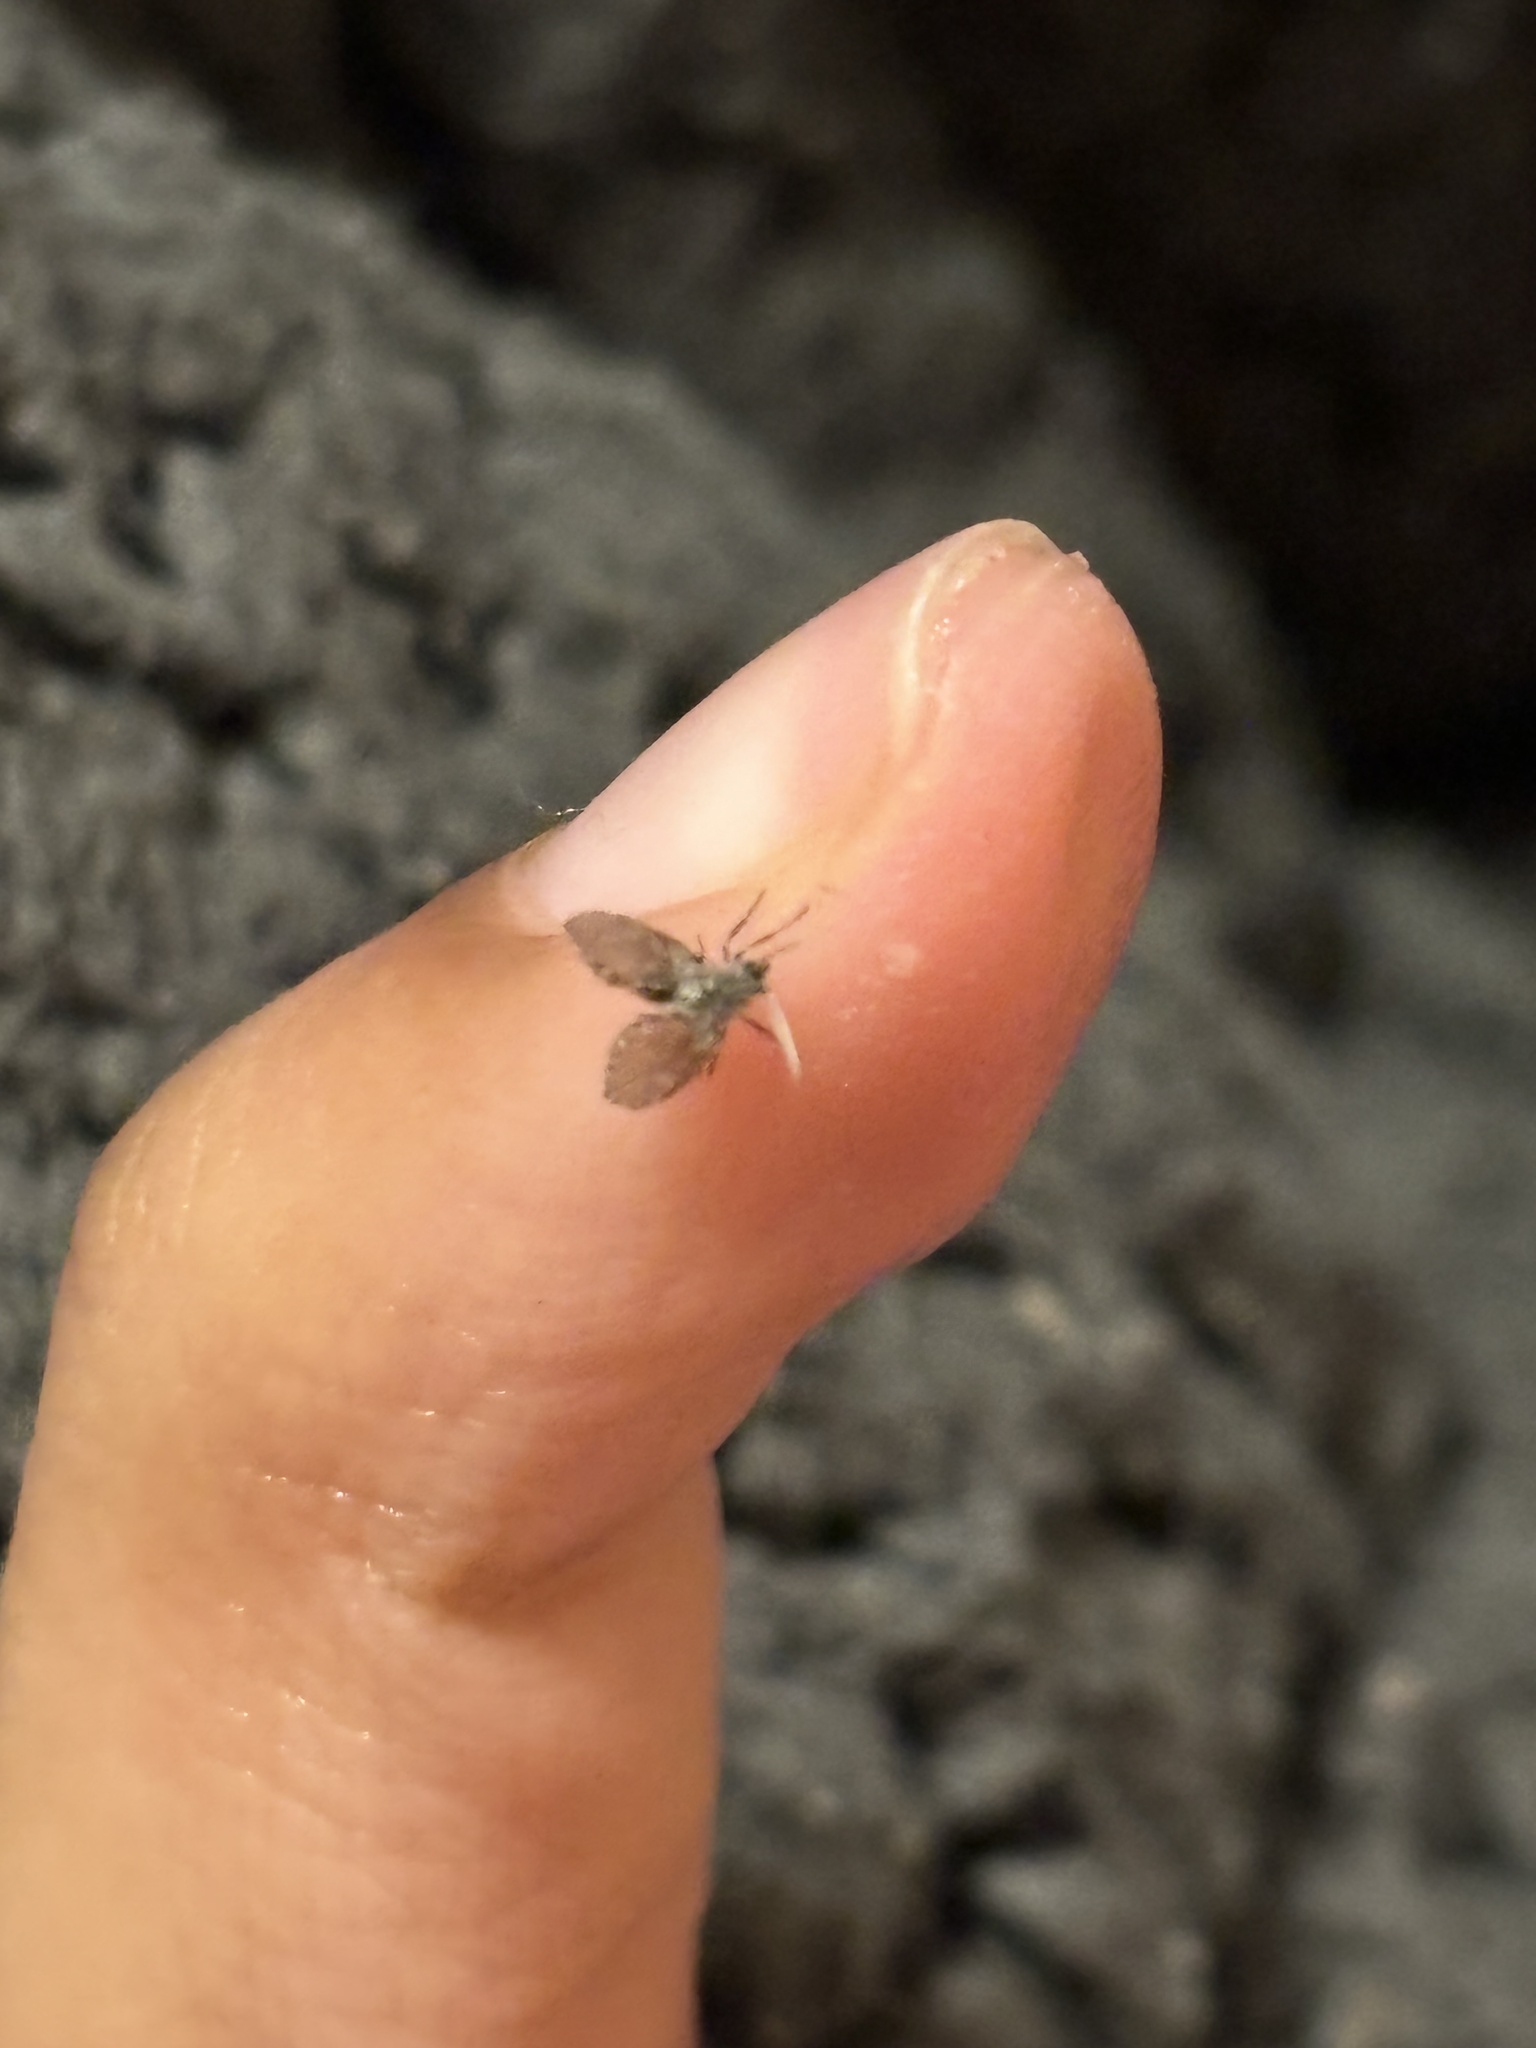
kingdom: Animalia
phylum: Arthropoda
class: Insecta
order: Diptera
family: Psychodidae
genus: Clogmia
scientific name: Clogmia albipunctatus
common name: White-spotted moth fly
